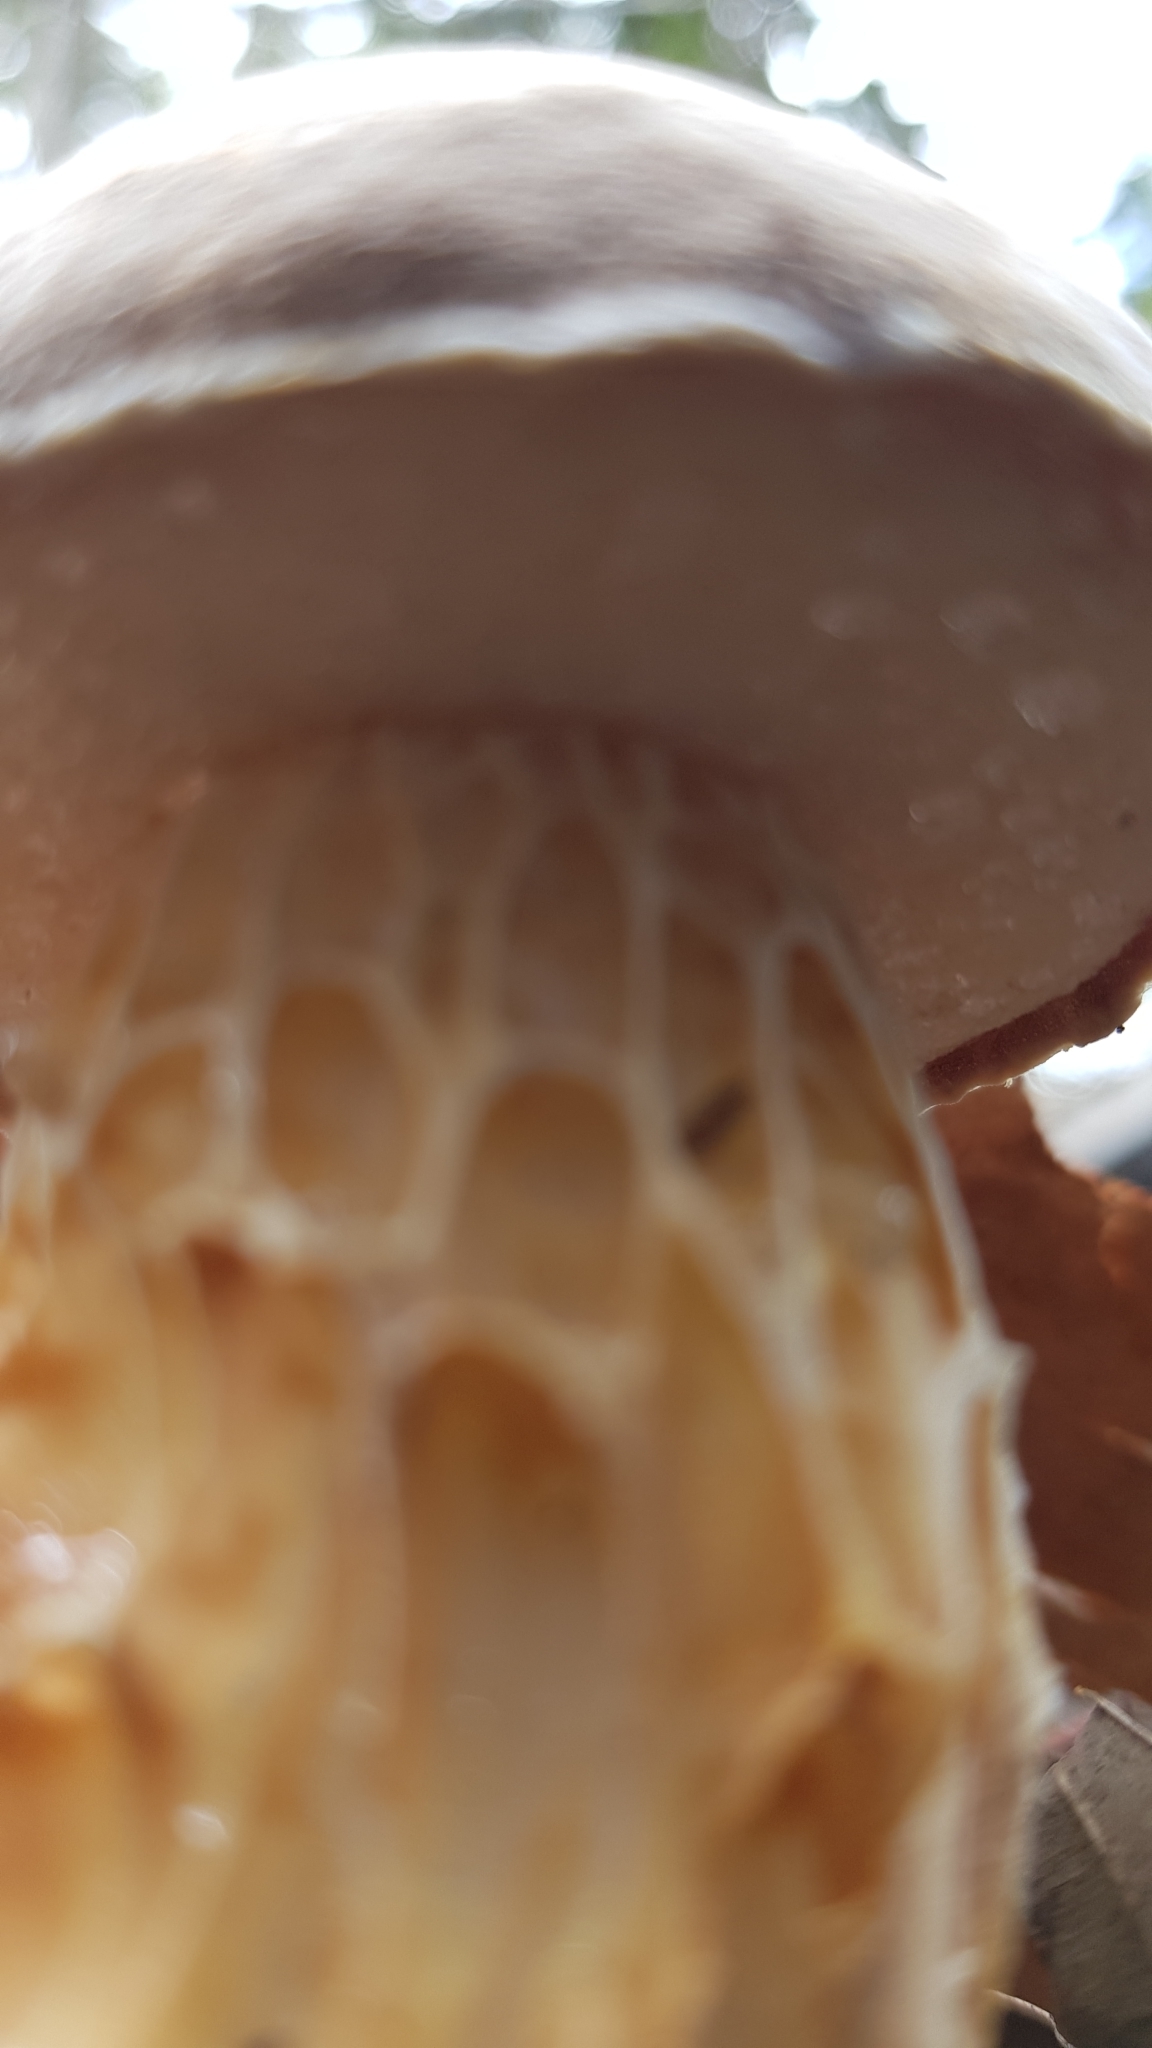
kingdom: Fungi
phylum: Basidiomycota
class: Agaricomycetes
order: Boletales
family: Boletaceae
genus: Austroboletus
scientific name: Austroboletus occidentalis
